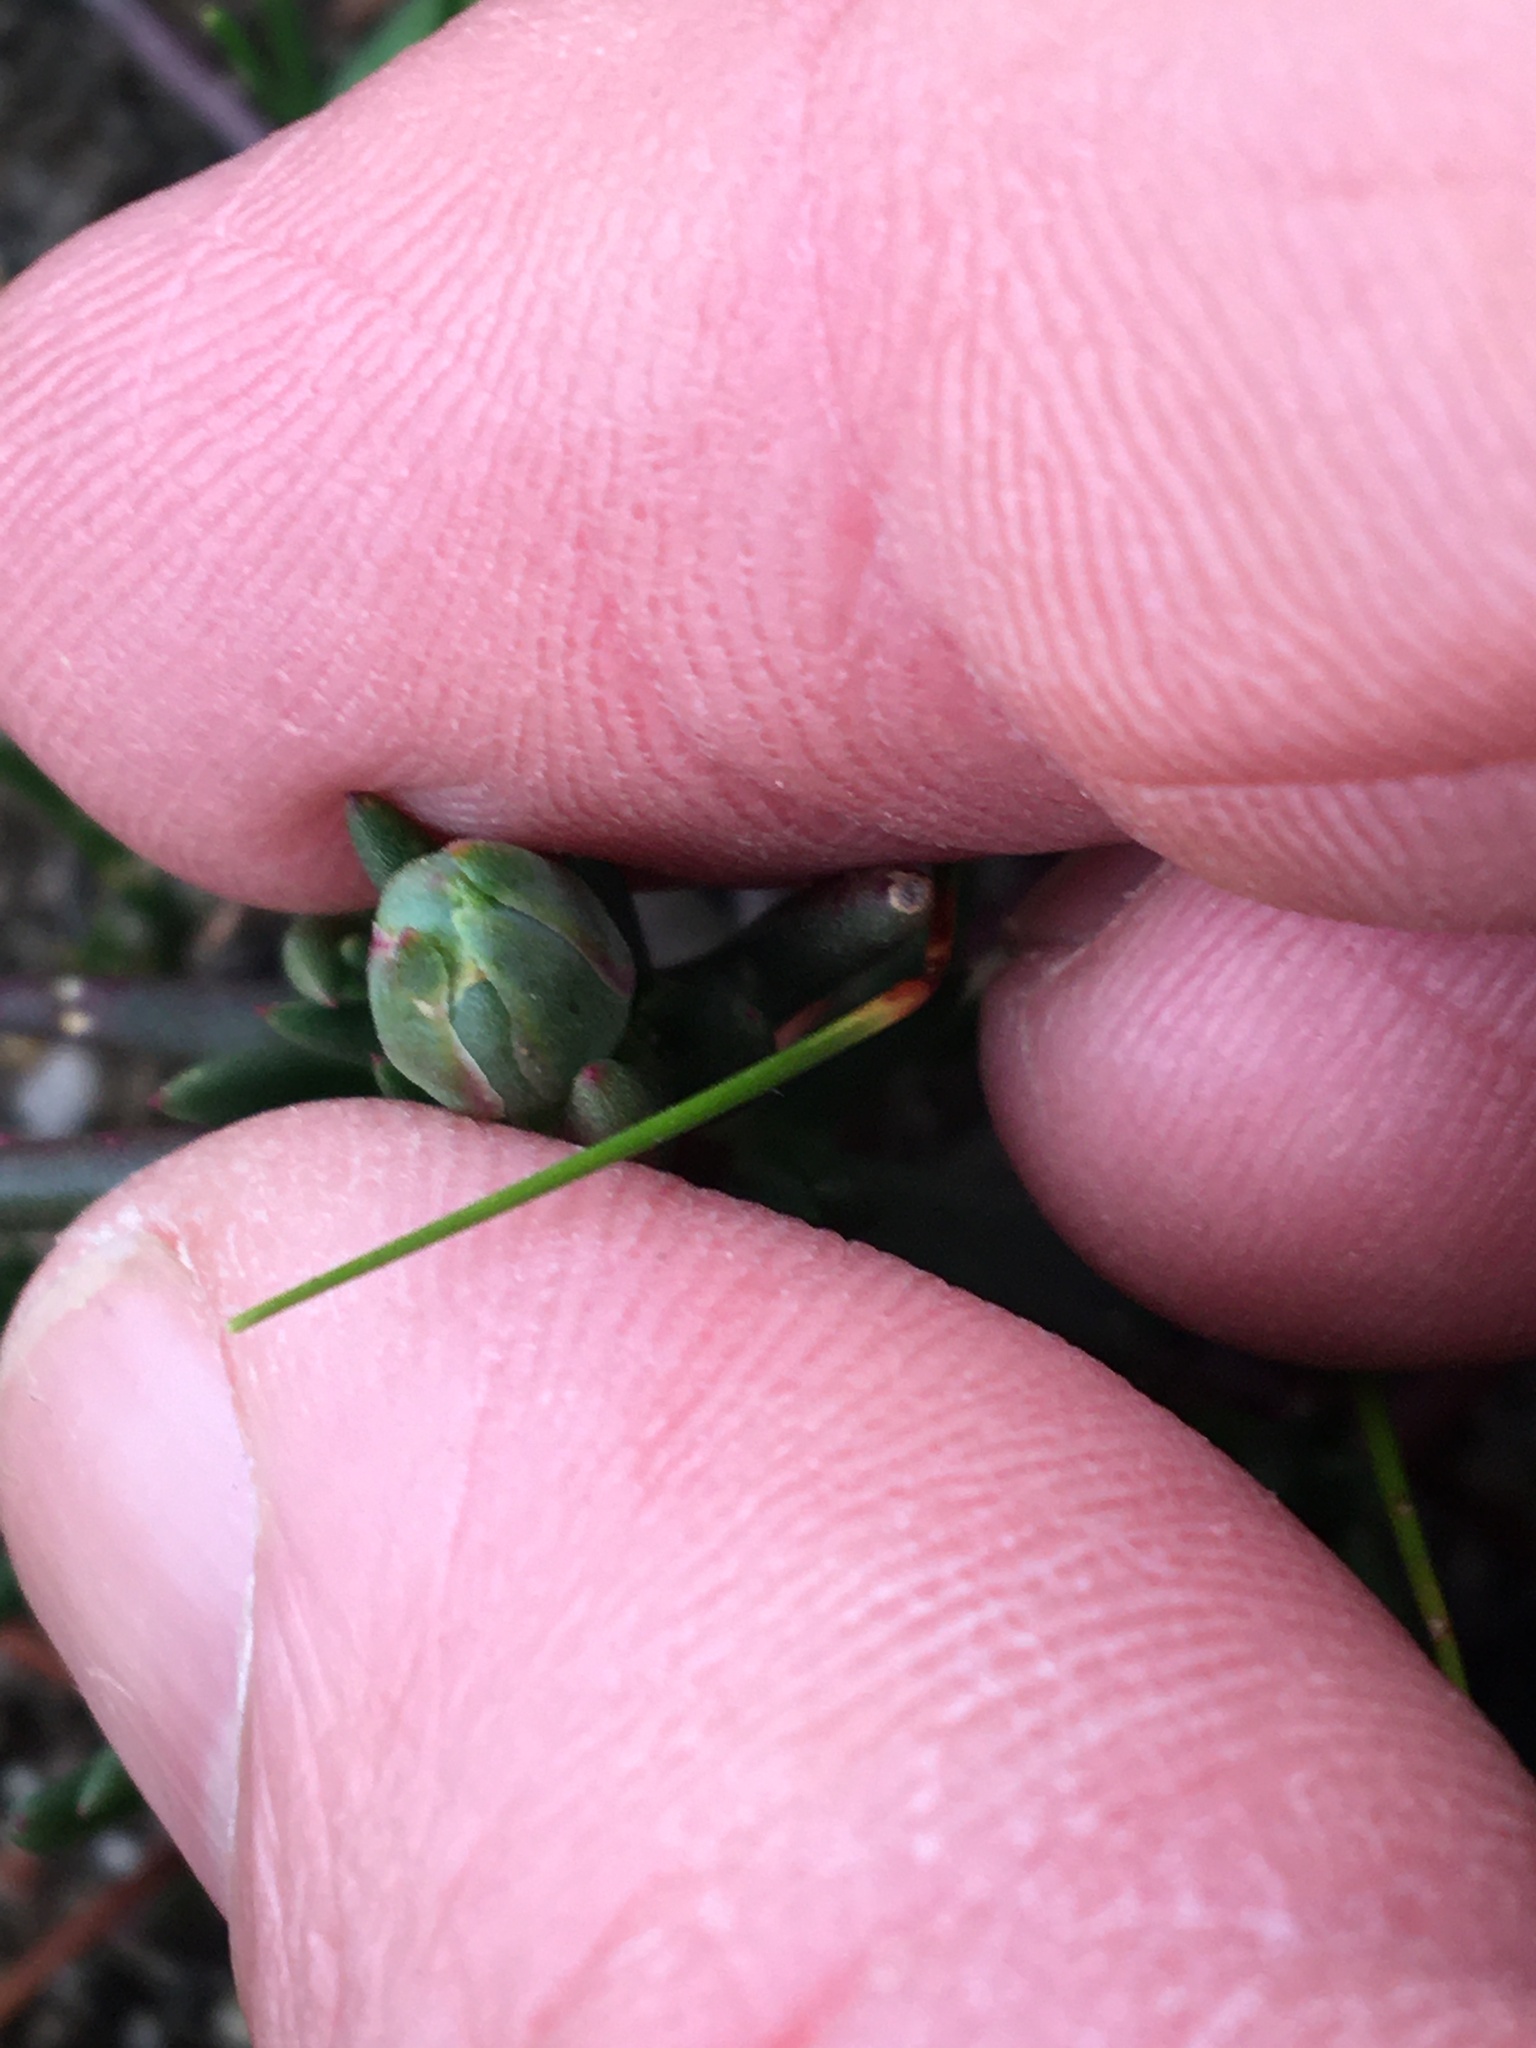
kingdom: Plantae
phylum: Tracheophyta
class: Magnoliopsida
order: Caryophyllales
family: Aizoaceae
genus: Lampranthus
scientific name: Lampranthus filicaulis
